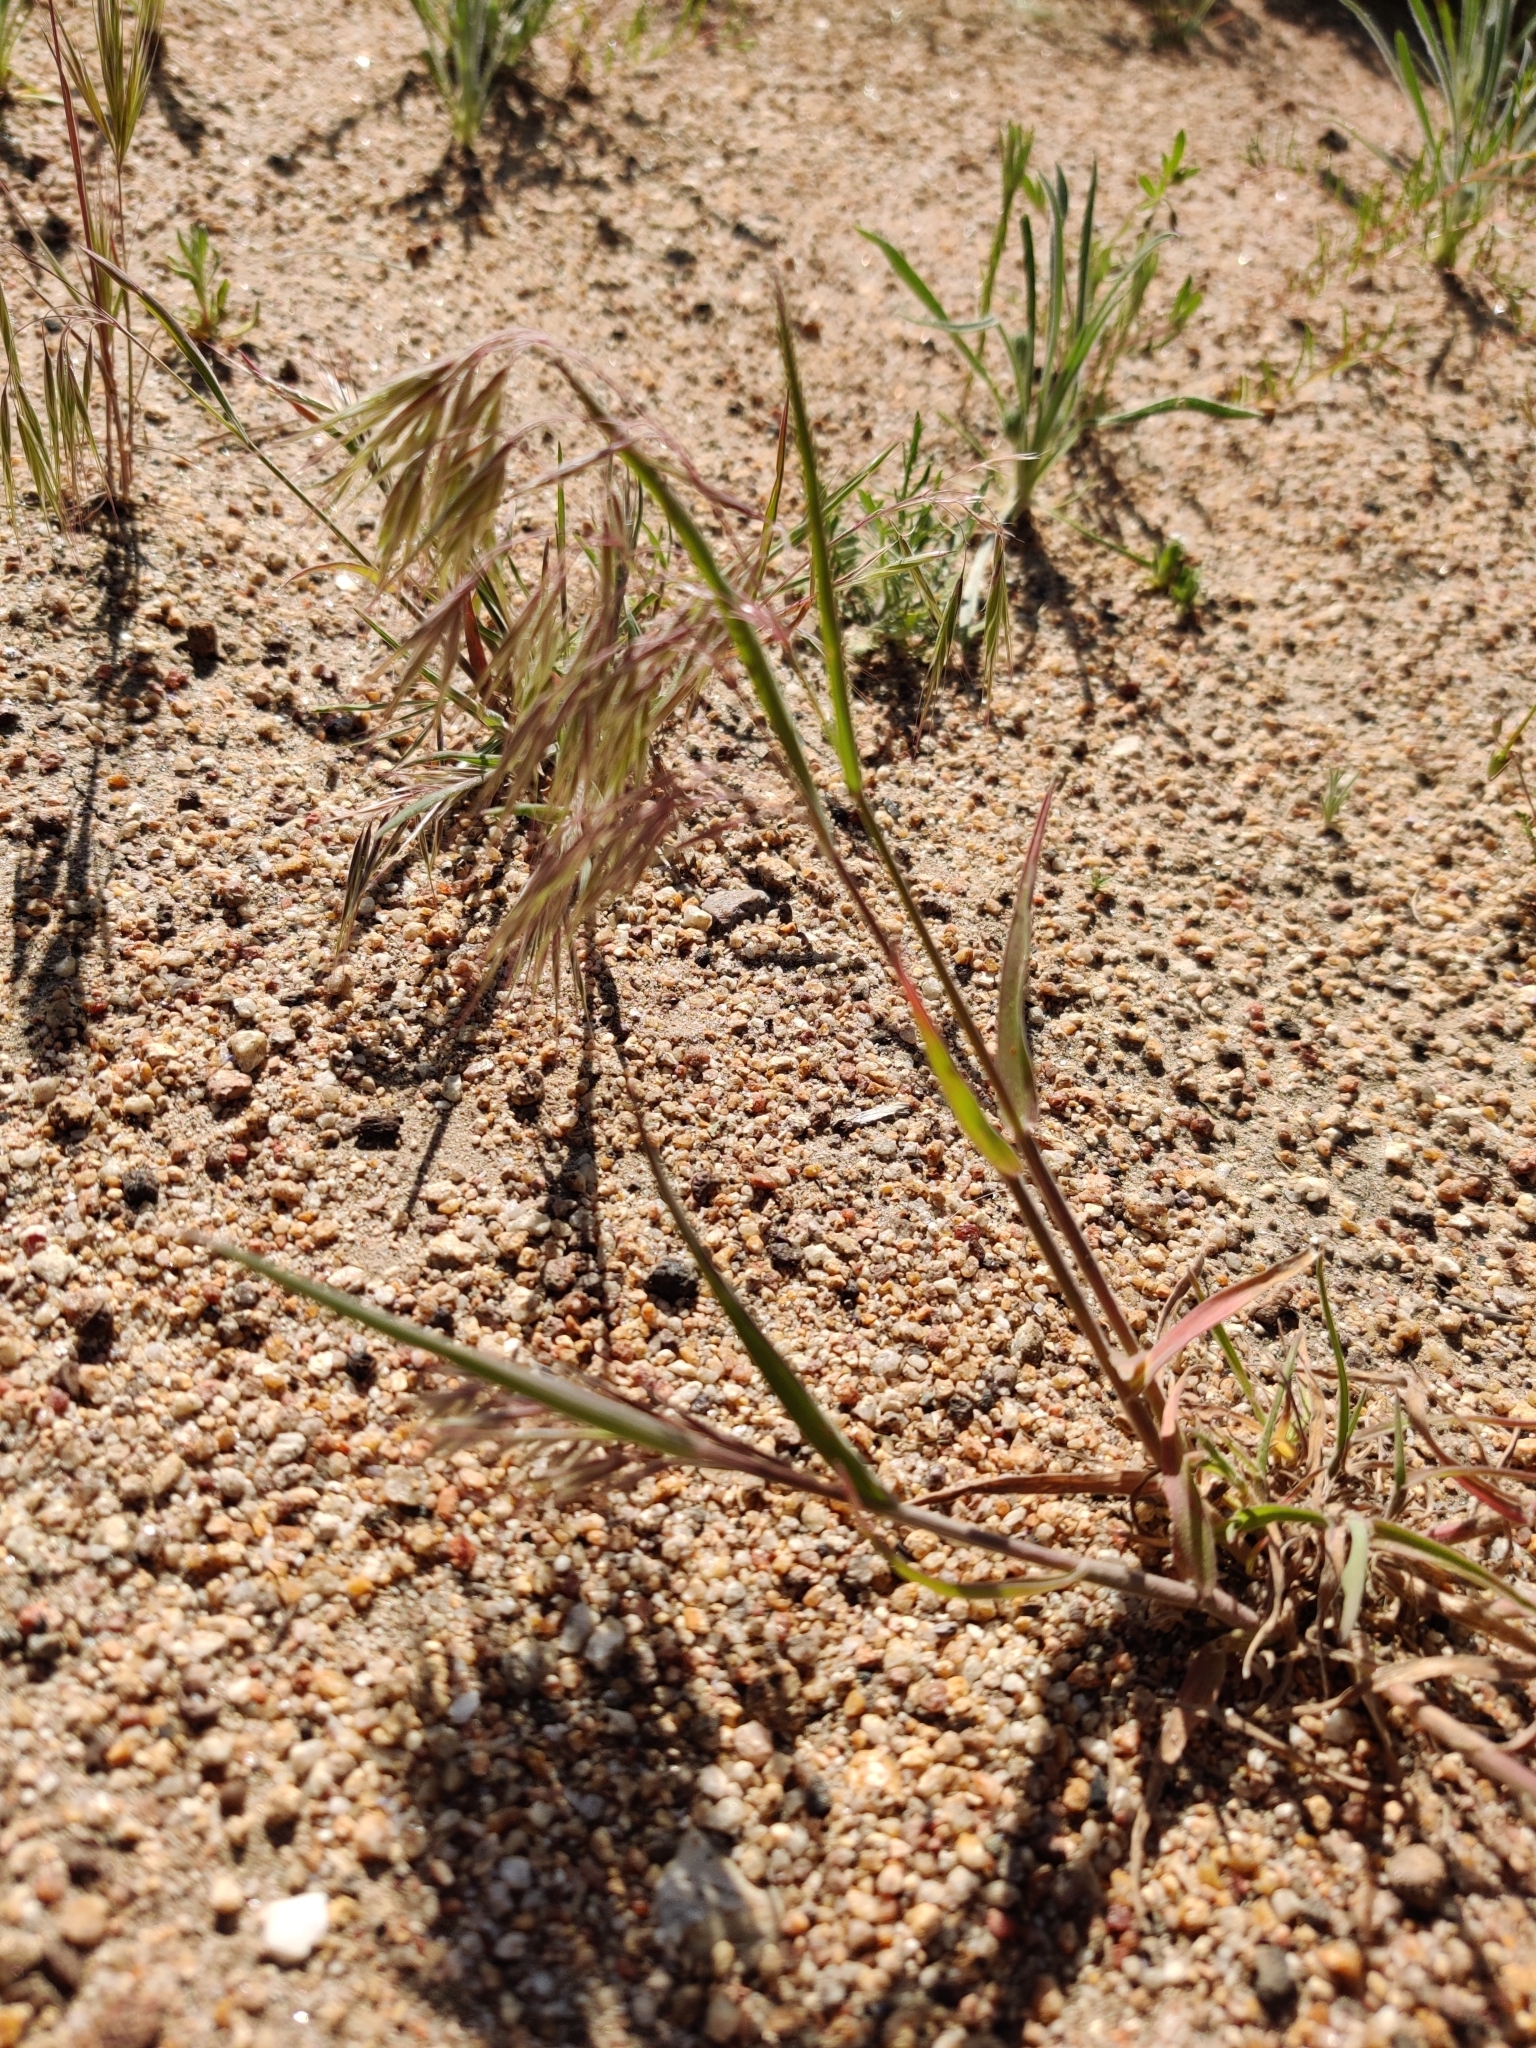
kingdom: Plantae
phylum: Tracheophyta
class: Liliopsida
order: Poales
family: Poaceae
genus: Bromus
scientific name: Bromus tectorum
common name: Cheatgrass
